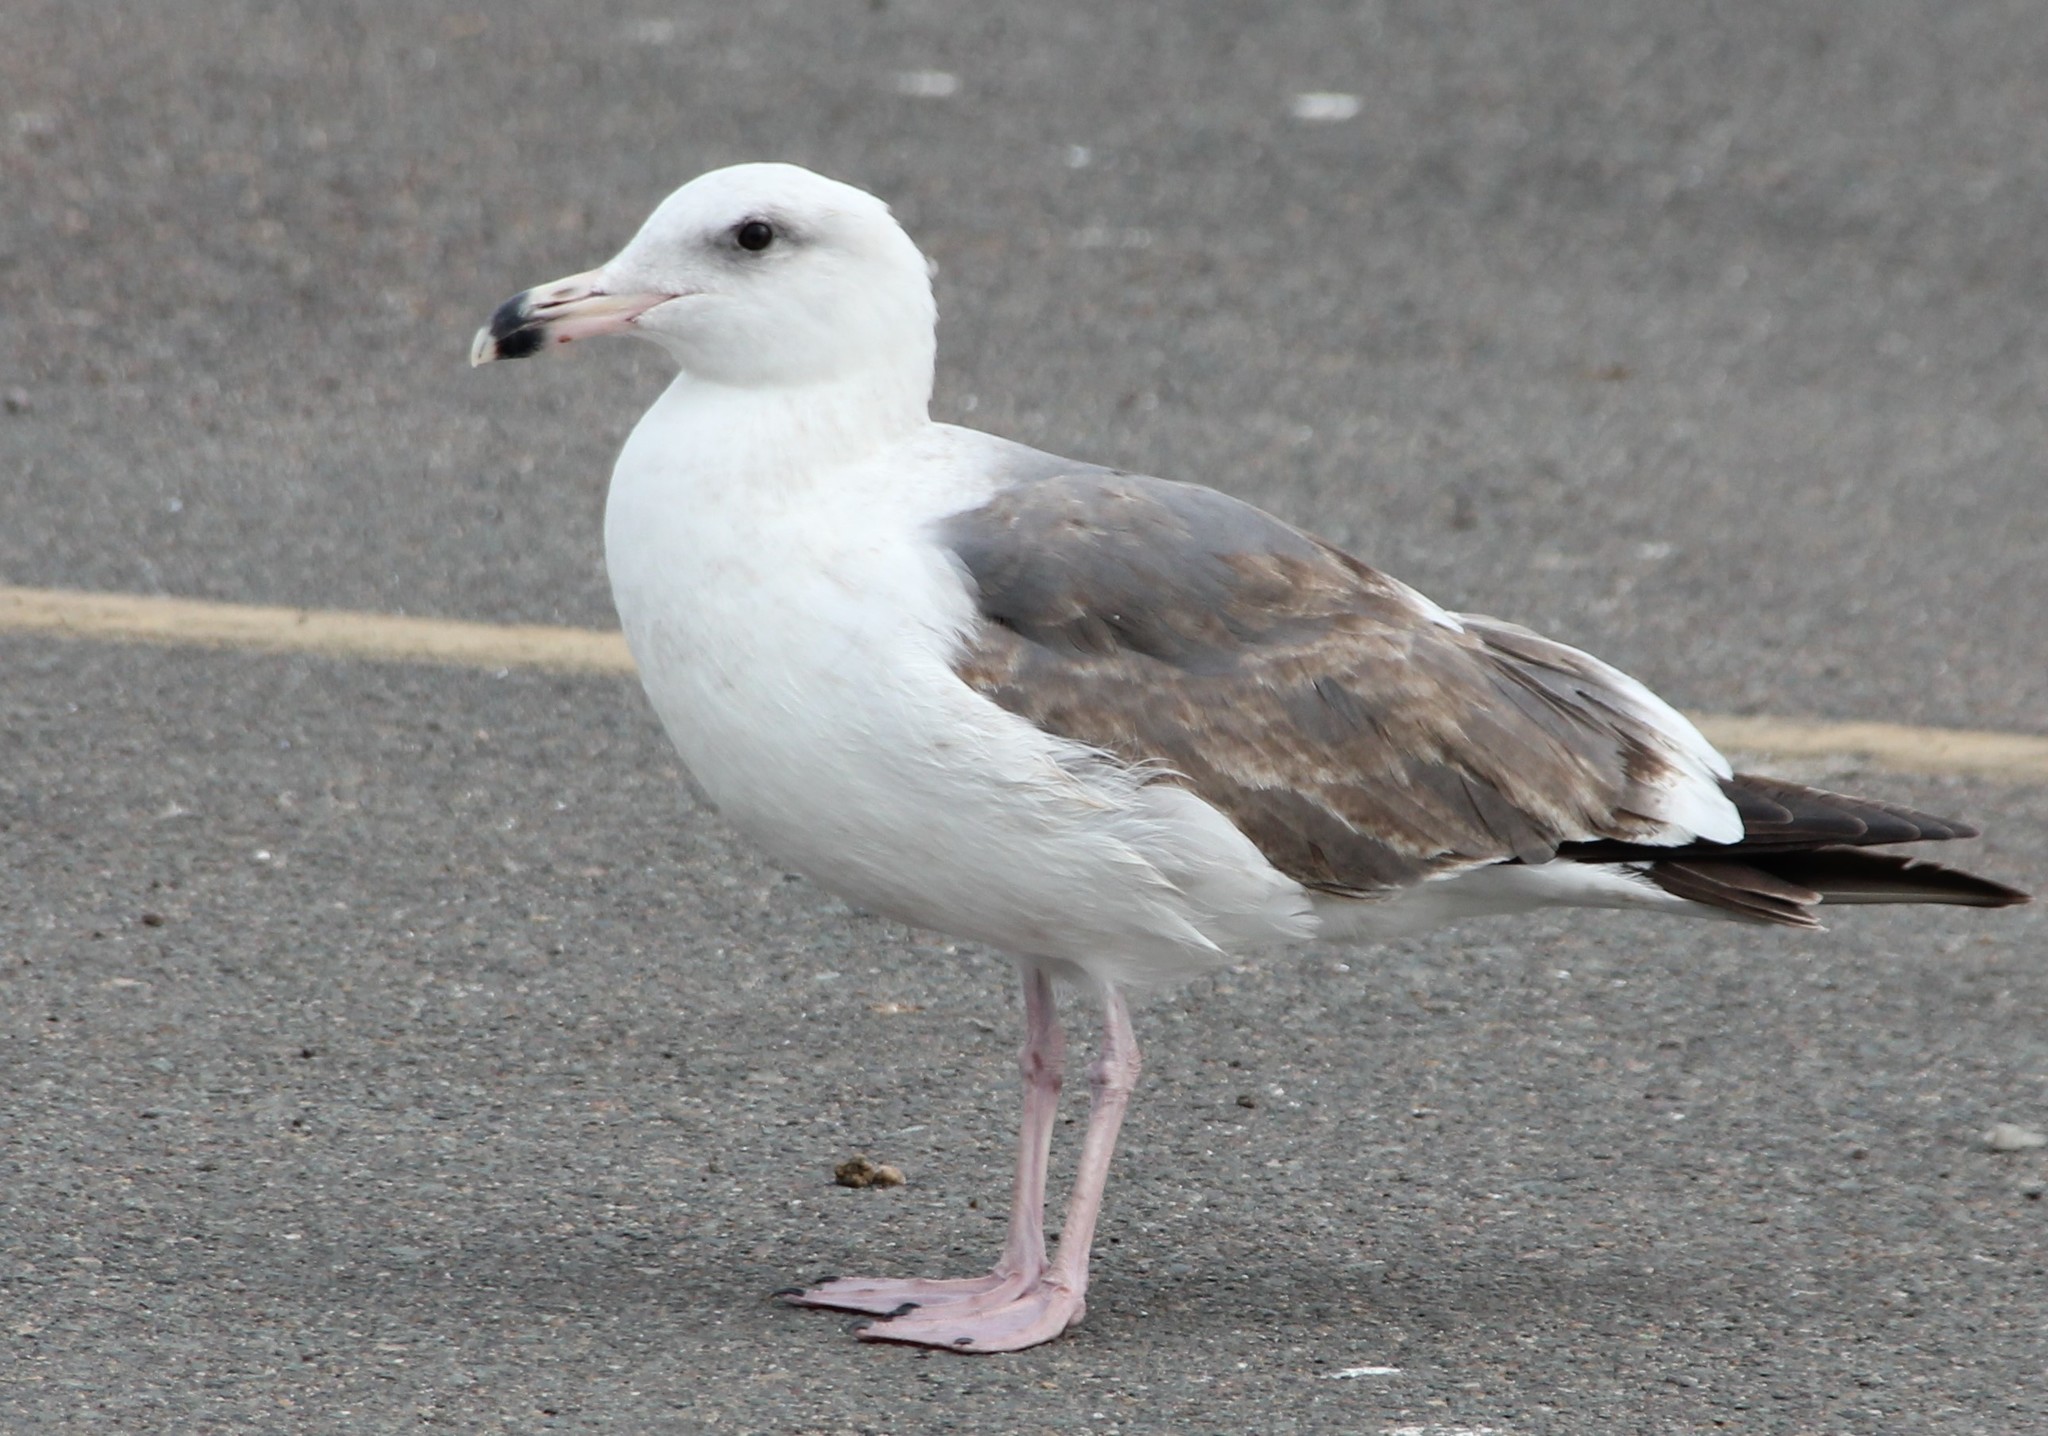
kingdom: Animalia
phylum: Chordata
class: Aves
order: Charadriiformes
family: Laridae
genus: Larus
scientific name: Larus occidentalis
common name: Western gull
